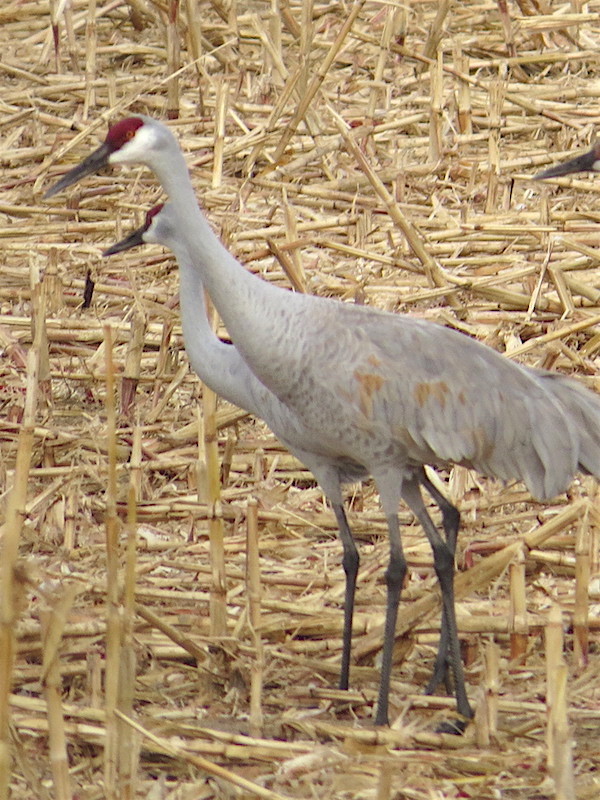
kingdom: Animalia
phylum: Chordata
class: Aves
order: Gruiformes
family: Gruidae
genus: Grus
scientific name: Grus canadensis
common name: Sandhill crane
